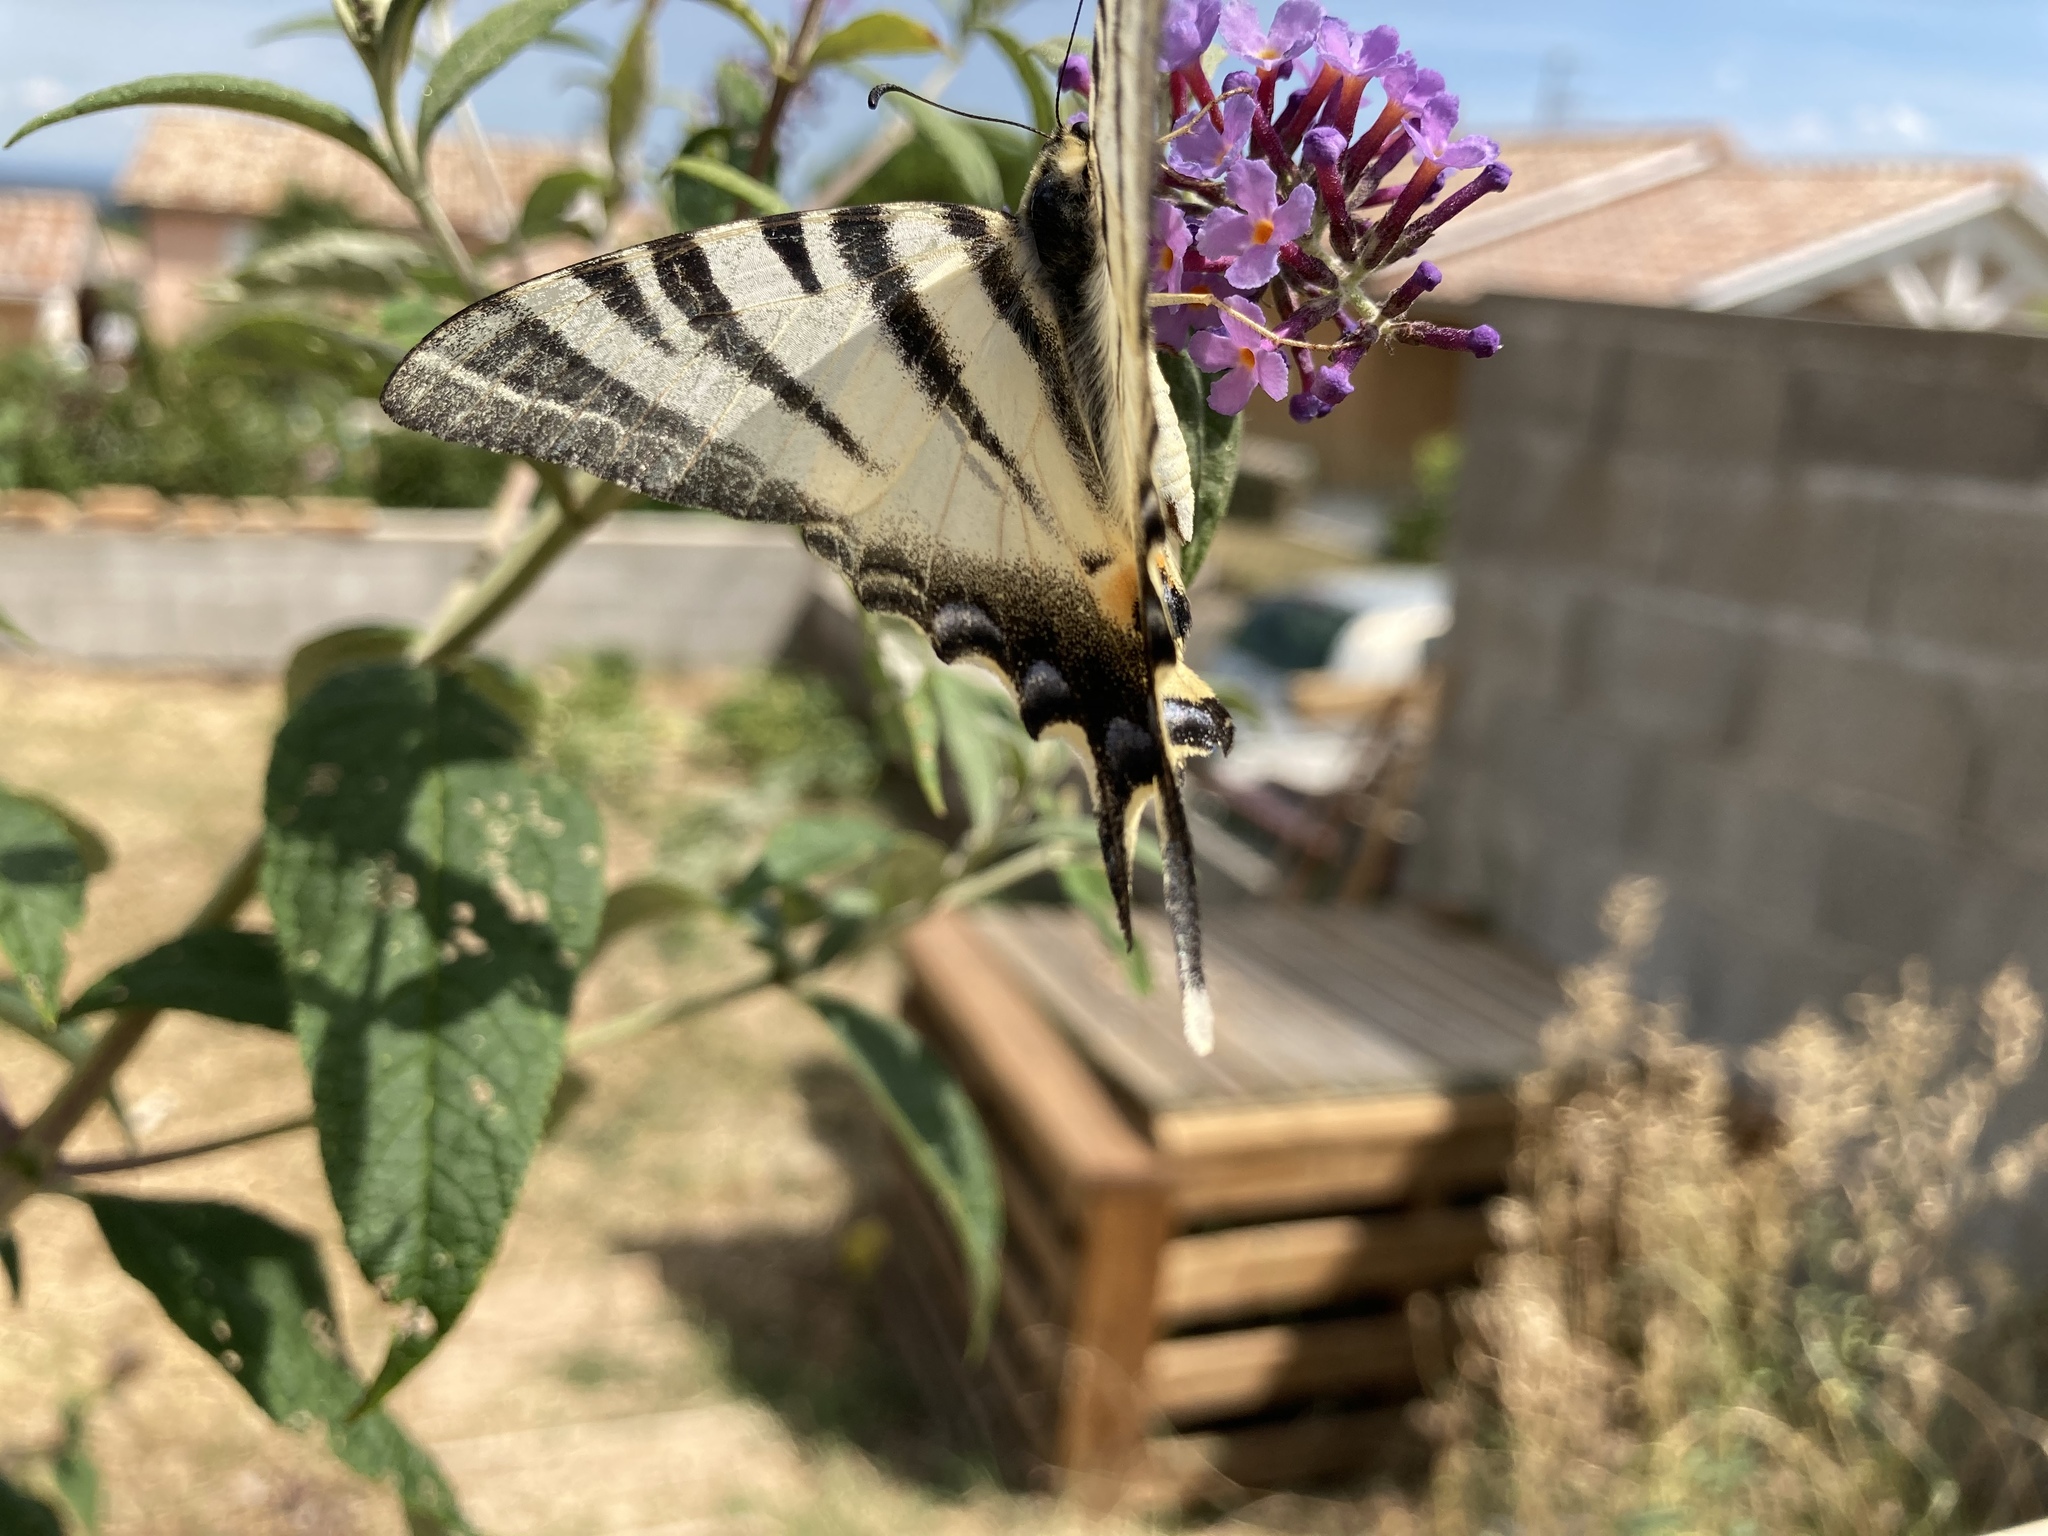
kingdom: Animalia
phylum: Arthropoda
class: Insecta
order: Lepidoptera
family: Papilionidae
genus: Iphiclides
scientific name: Iphiclides podalirius
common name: Scarce swallowtail
